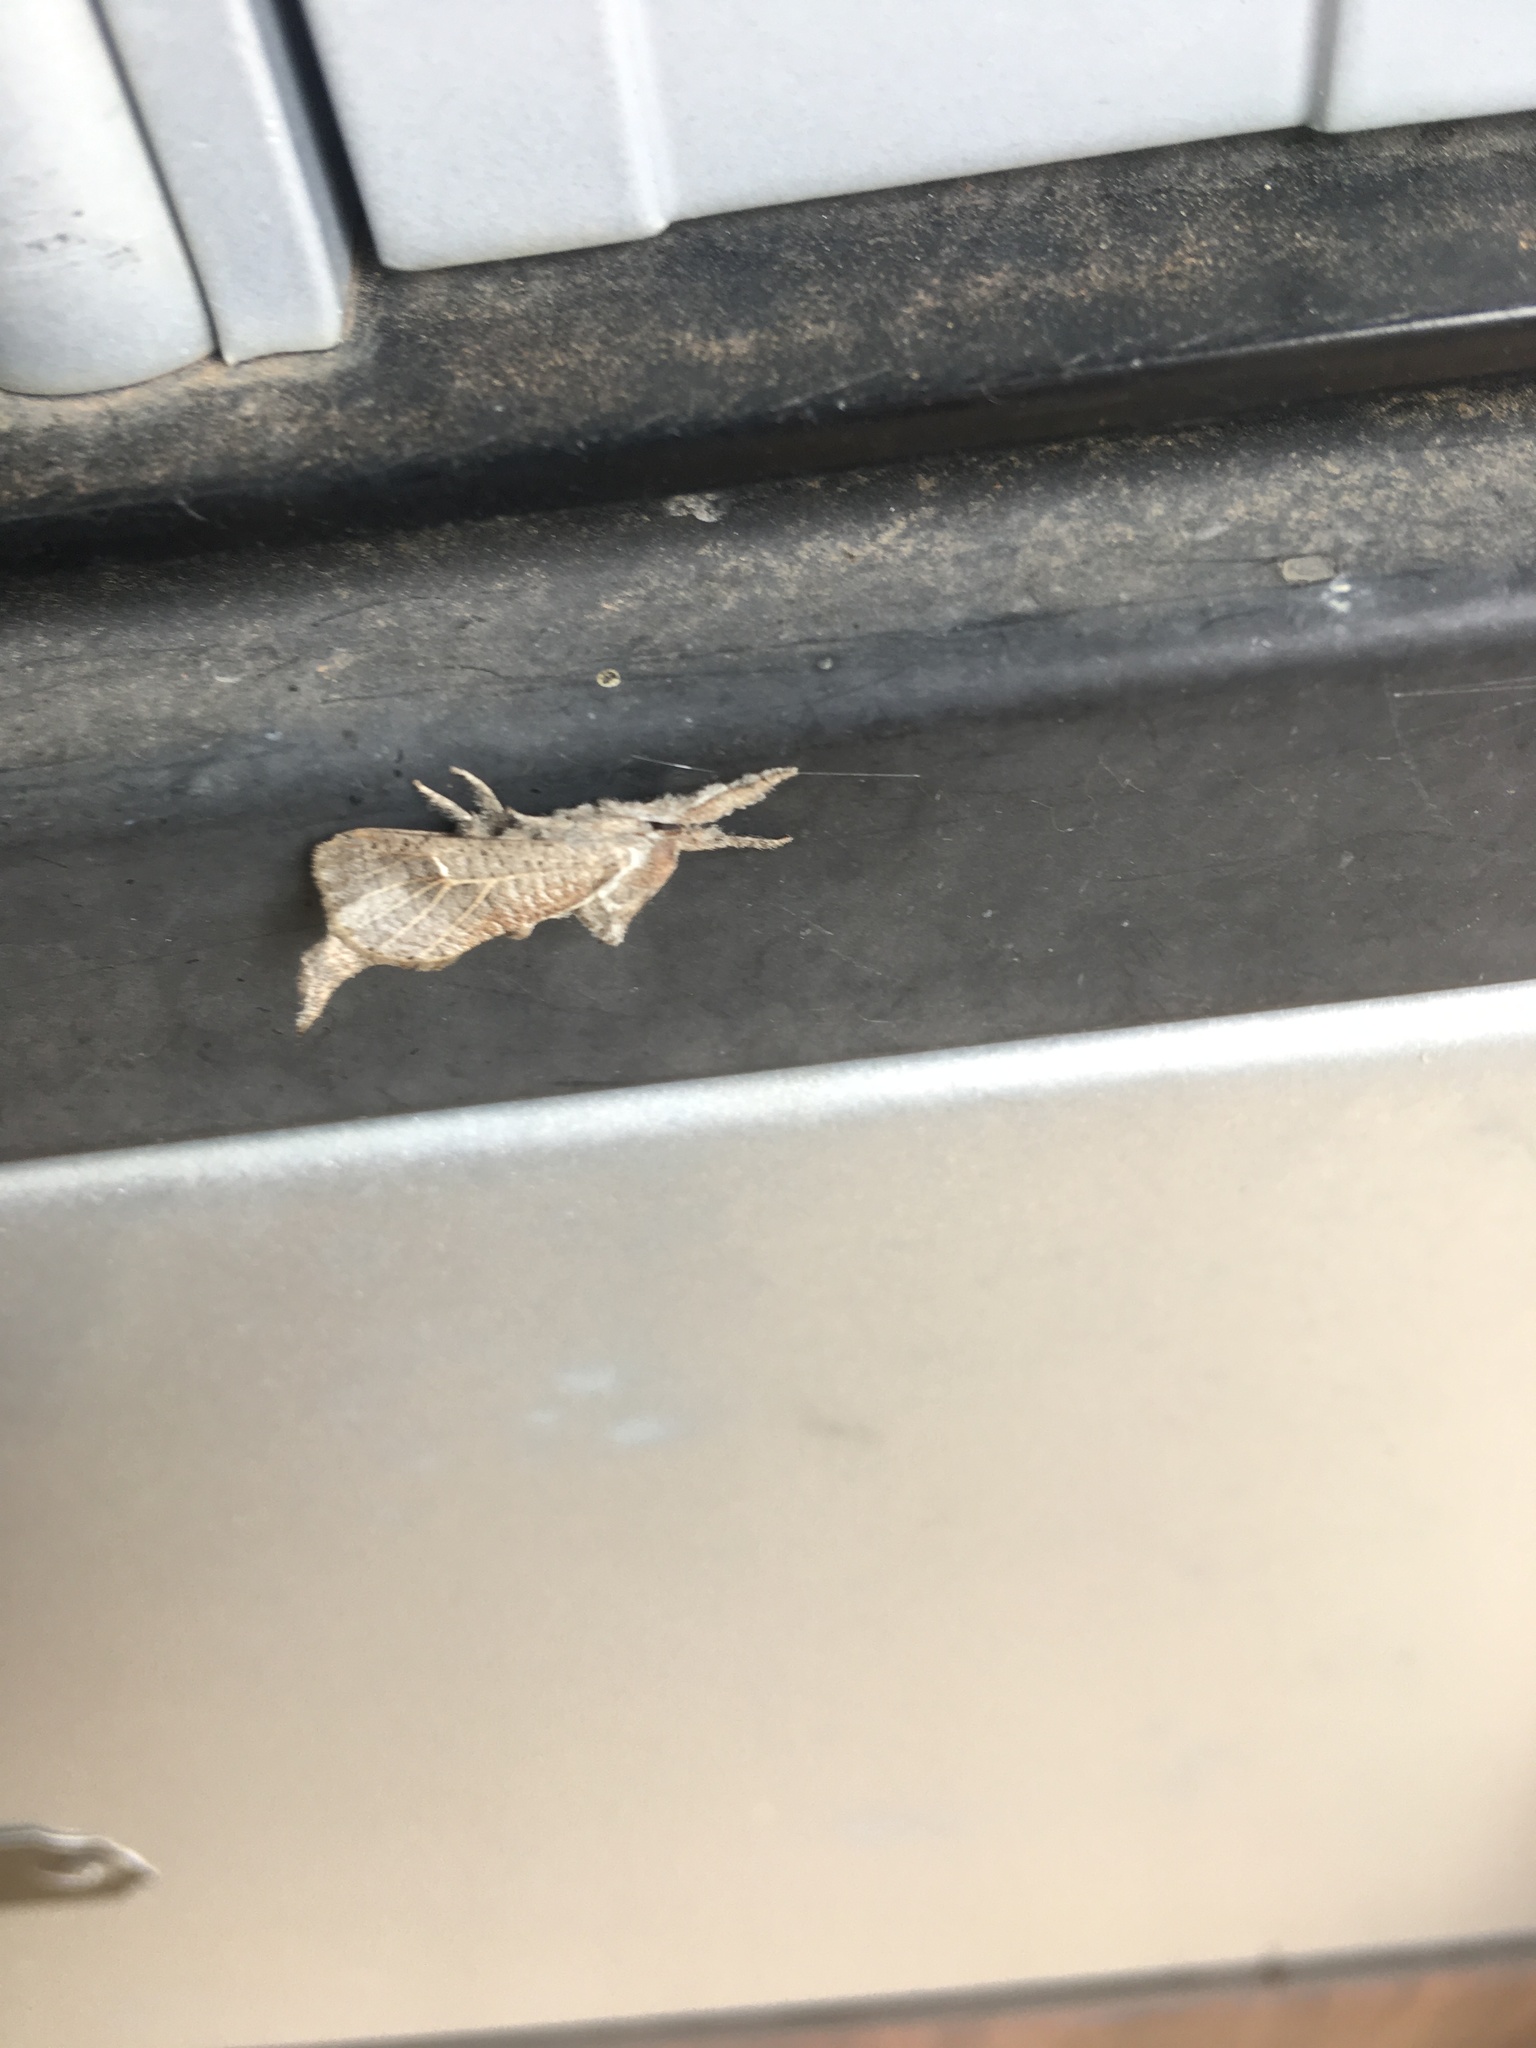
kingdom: Animalia
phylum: Arthropoda
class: Insecta
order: Lepidoptera
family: Cossidae
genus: Givira
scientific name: Givira anna
